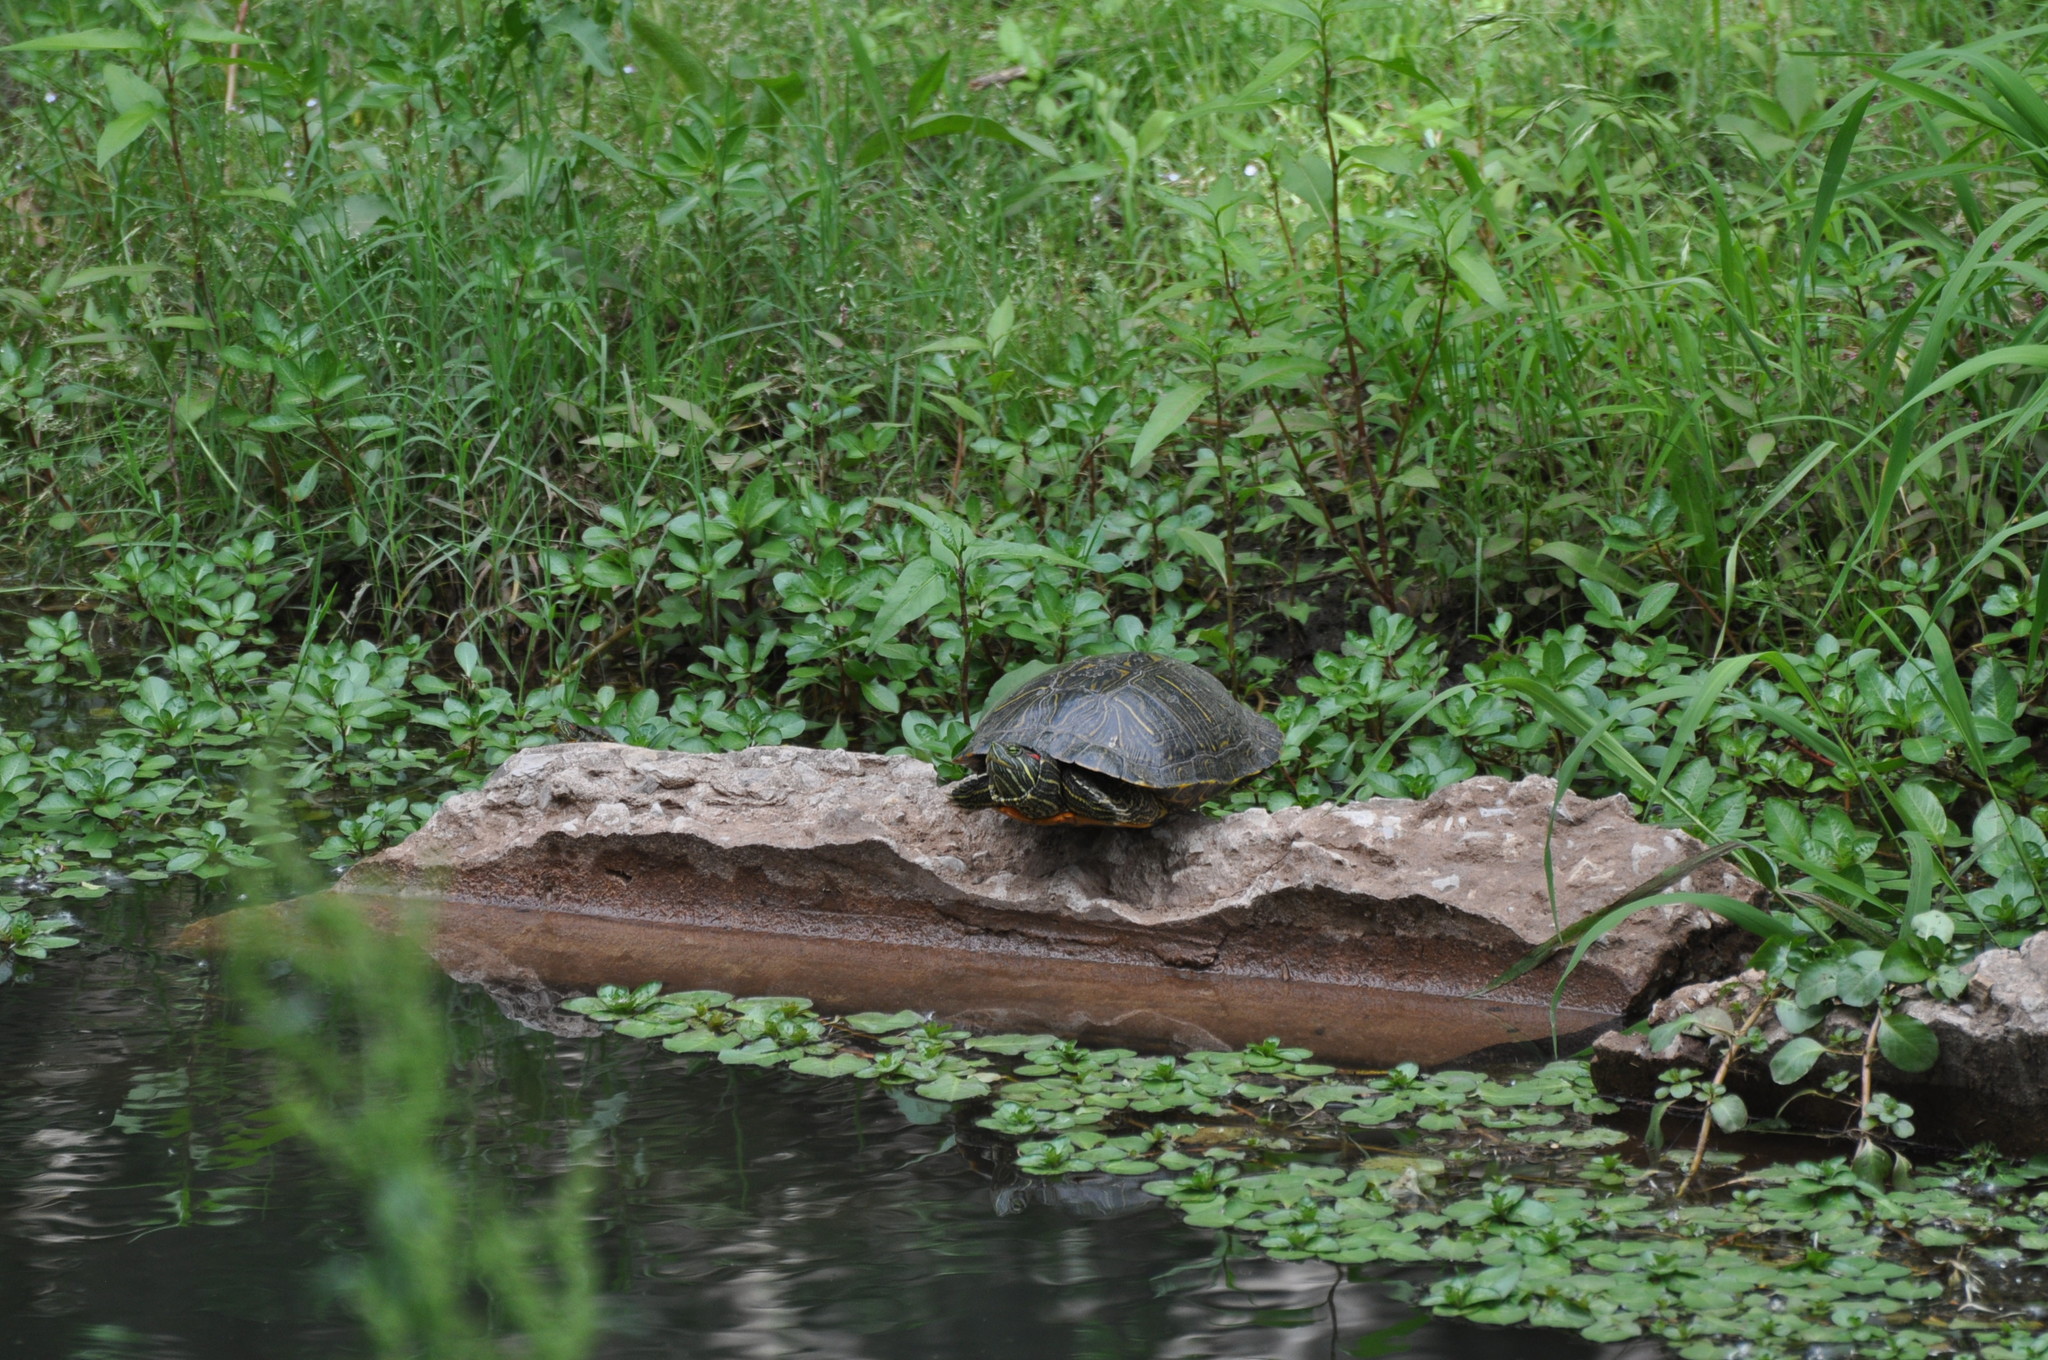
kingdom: Animalia
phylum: Chordata
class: Testudines
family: Emydidae
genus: Trachemys
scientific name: Trachemys scripta
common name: Slider
